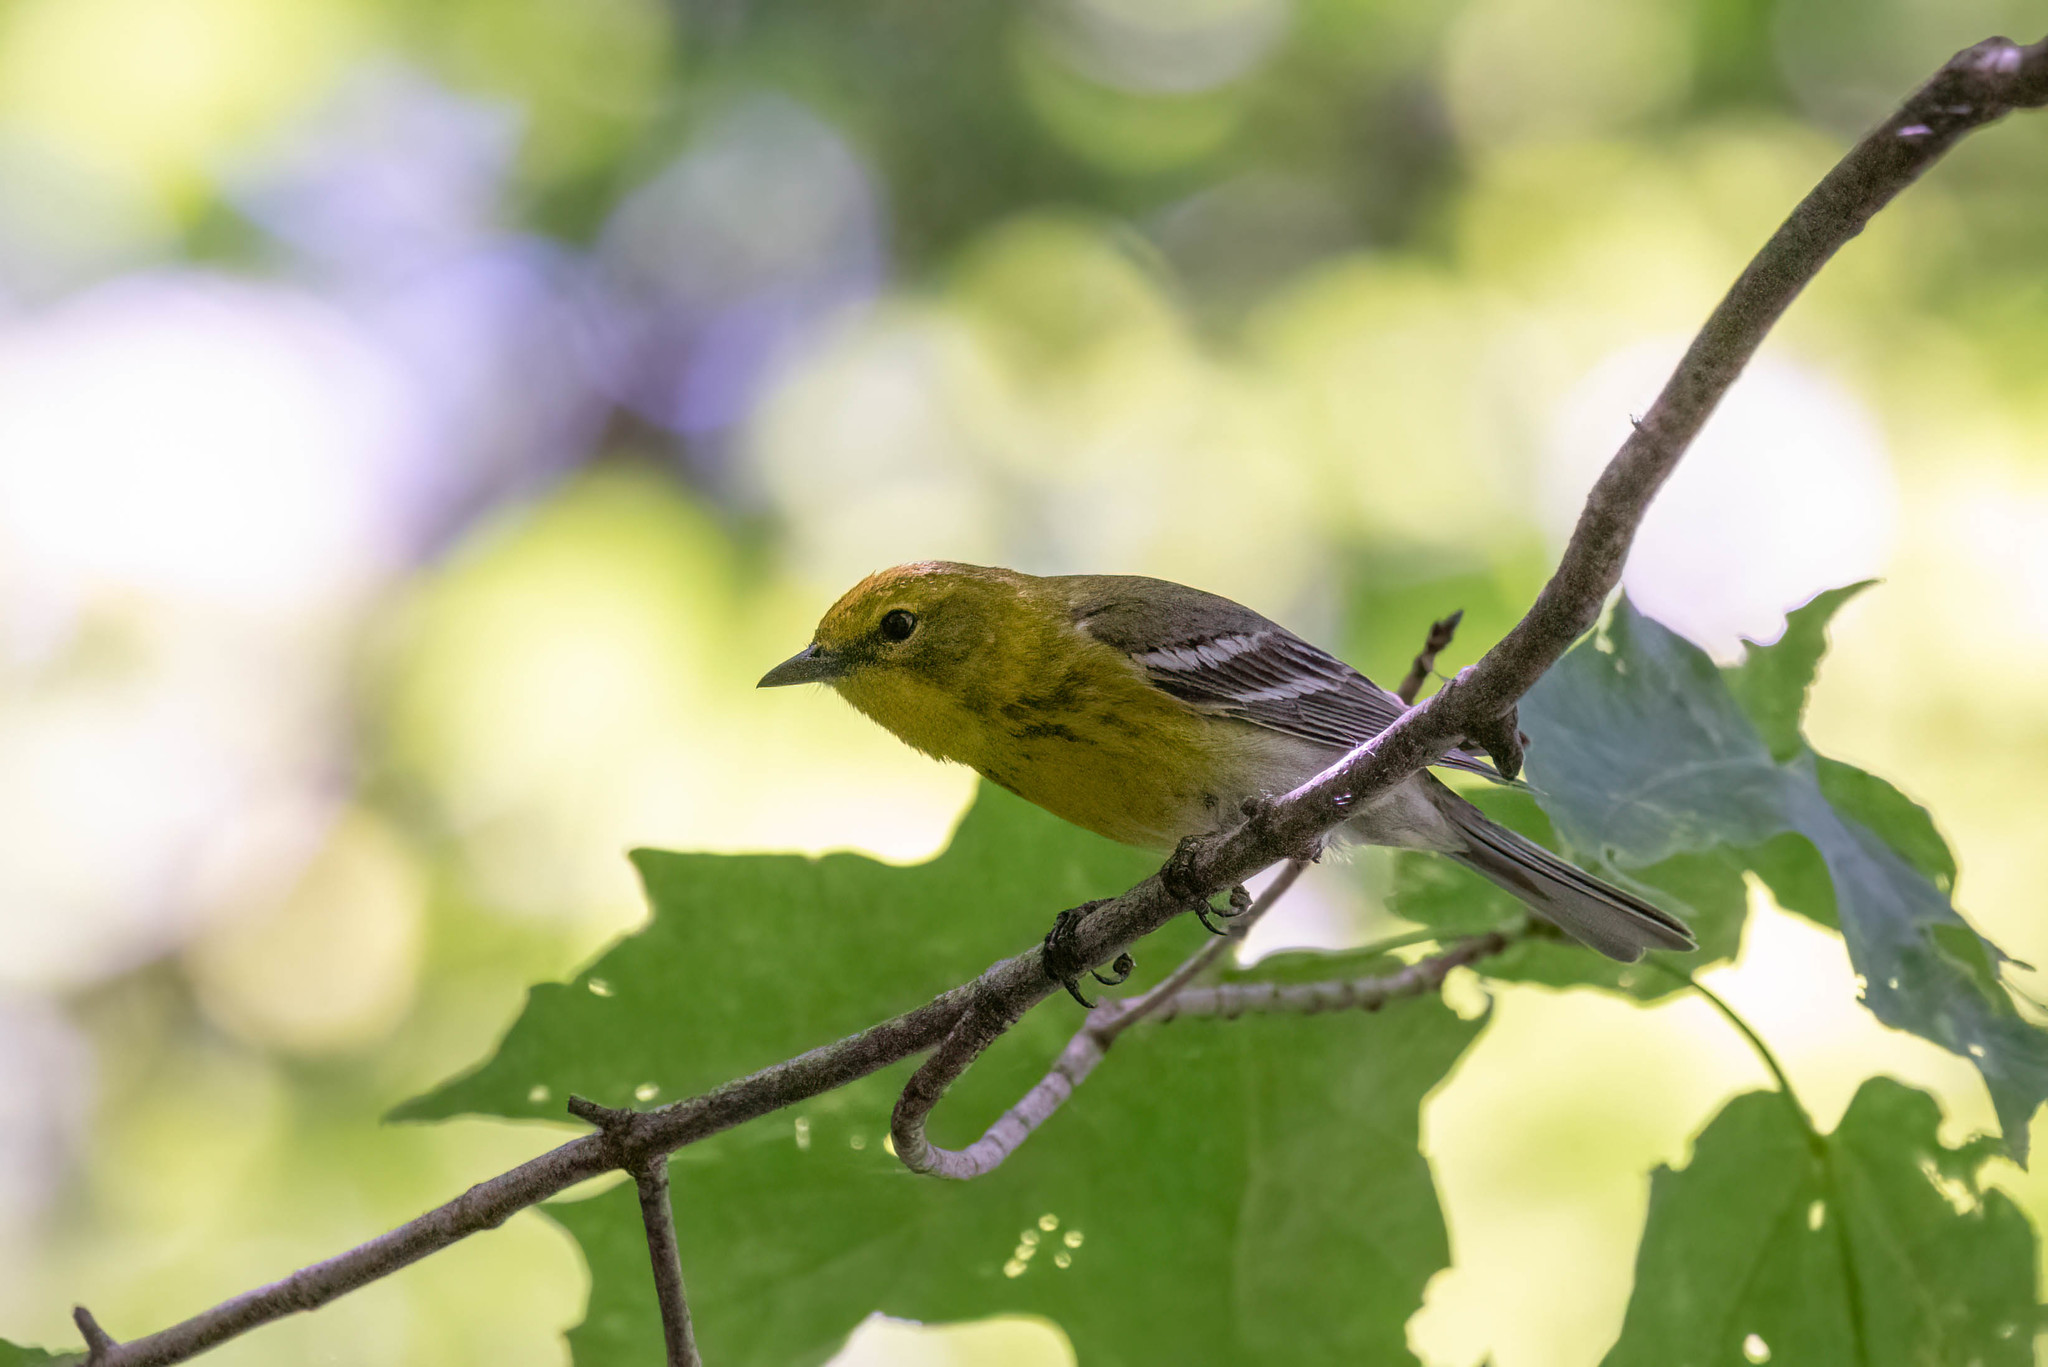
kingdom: Animalia
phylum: Chordata
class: Aves
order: Passeriformes
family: Parulidae
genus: Setophaga
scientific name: Setophaga pinus
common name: Pine warbler
